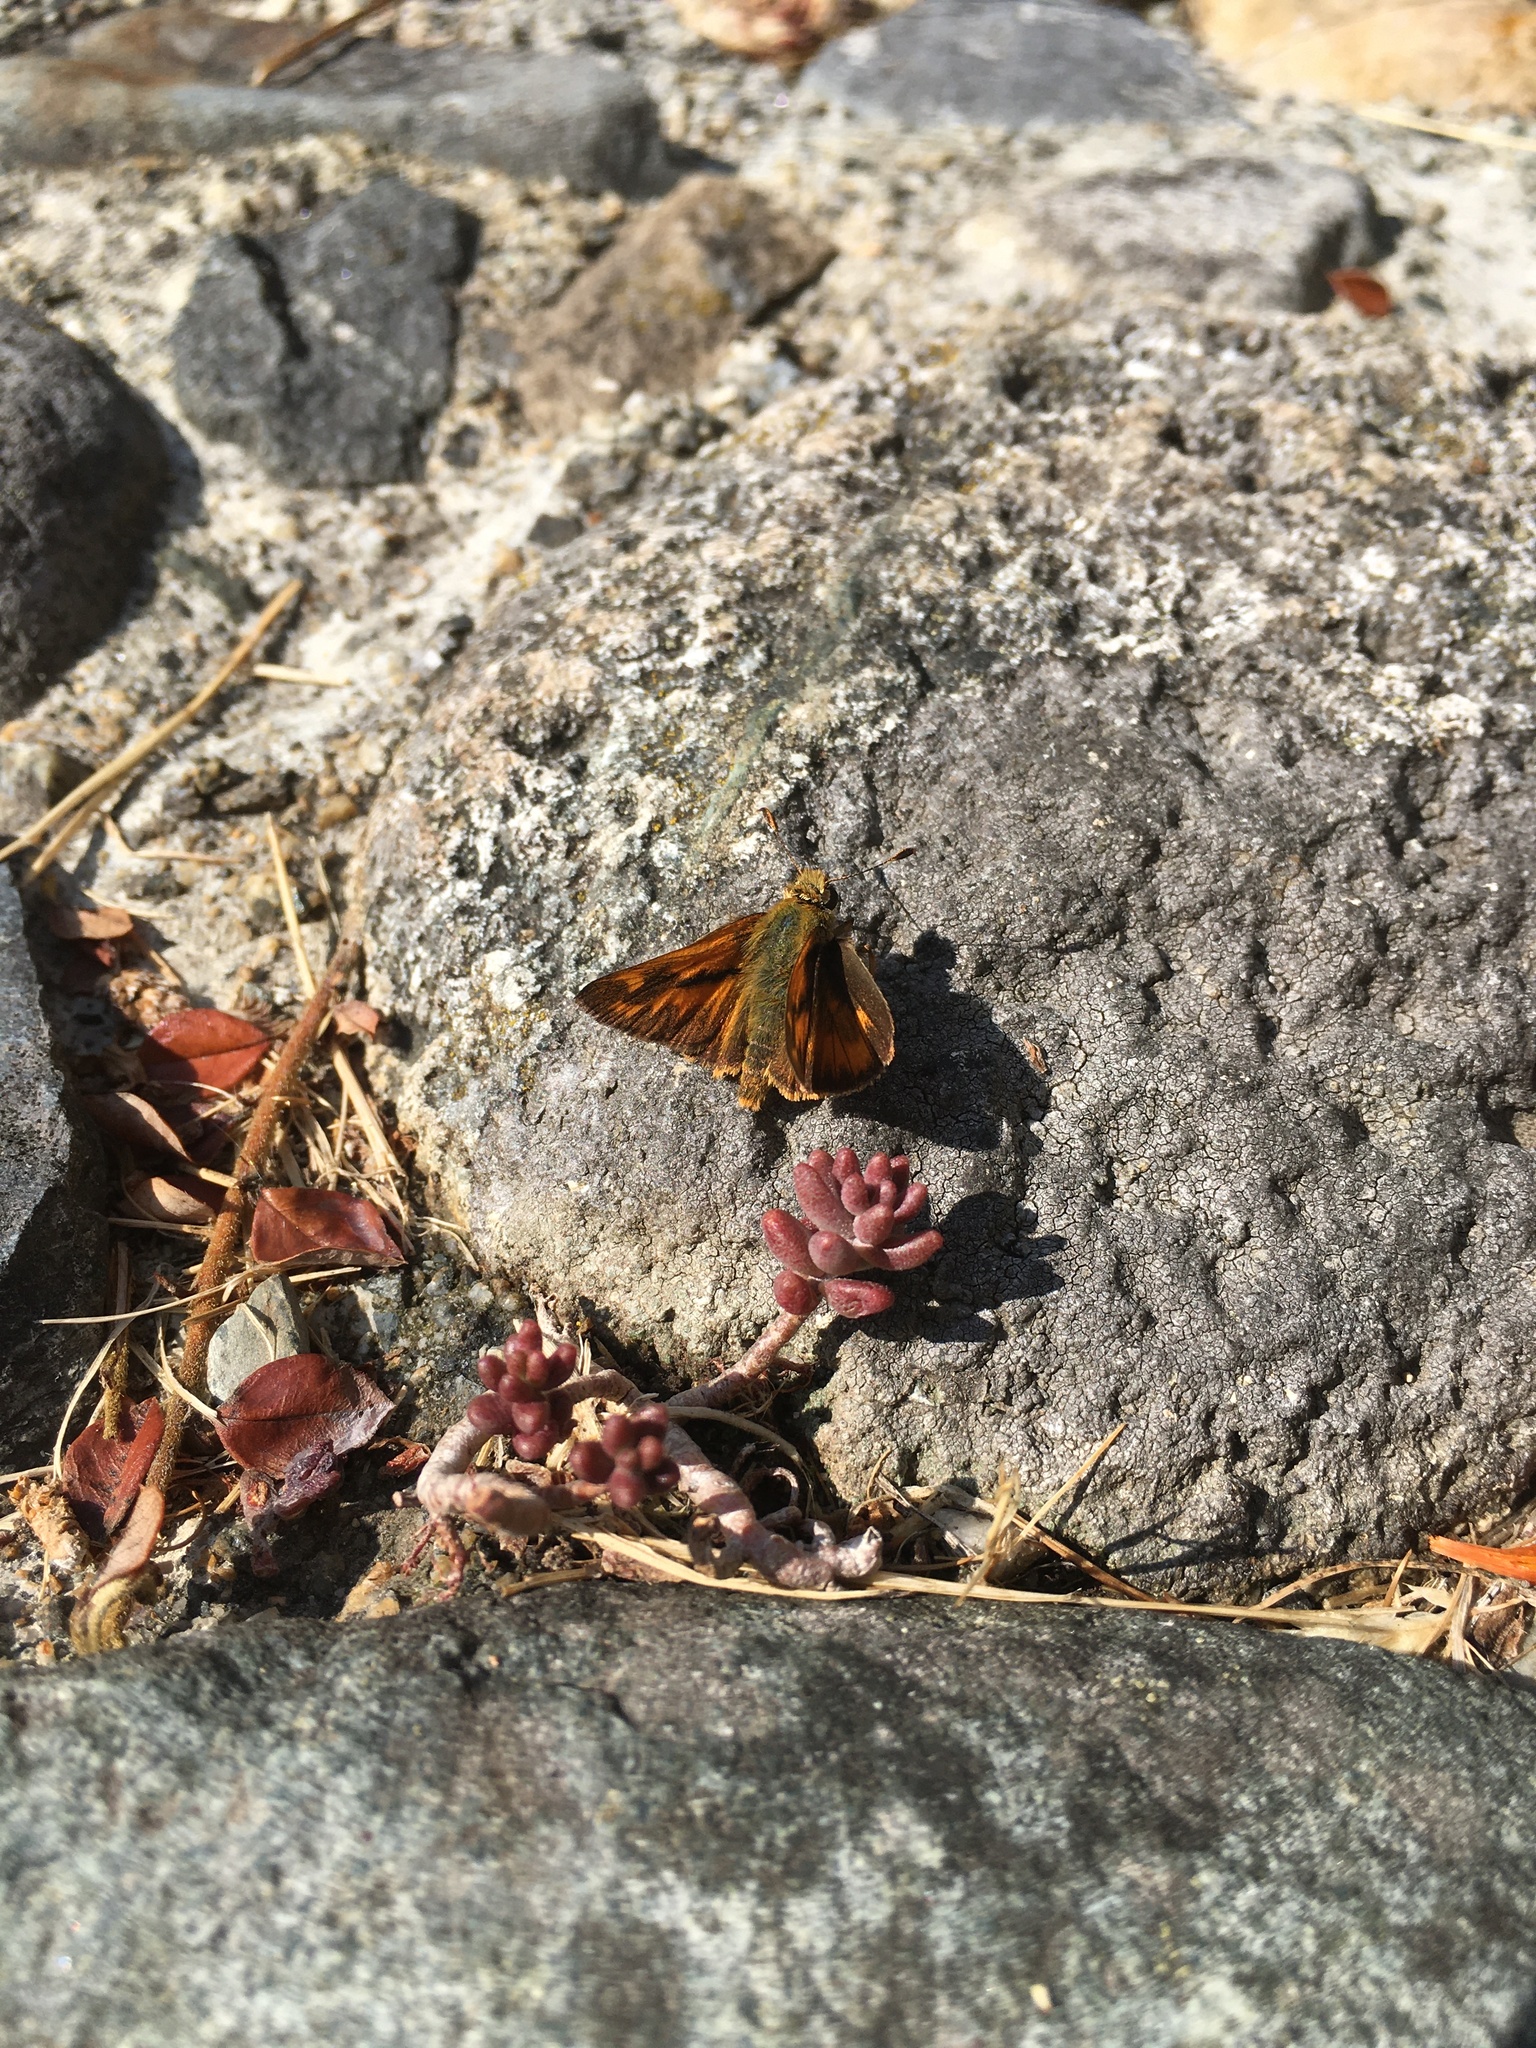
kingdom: Animalia
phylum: Arthropoda
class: Insecta
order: Lepidoptera
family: Hesperiidae
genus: Ochlodes
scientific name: Ochlodes sylvanoides
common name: Woodland skipper
